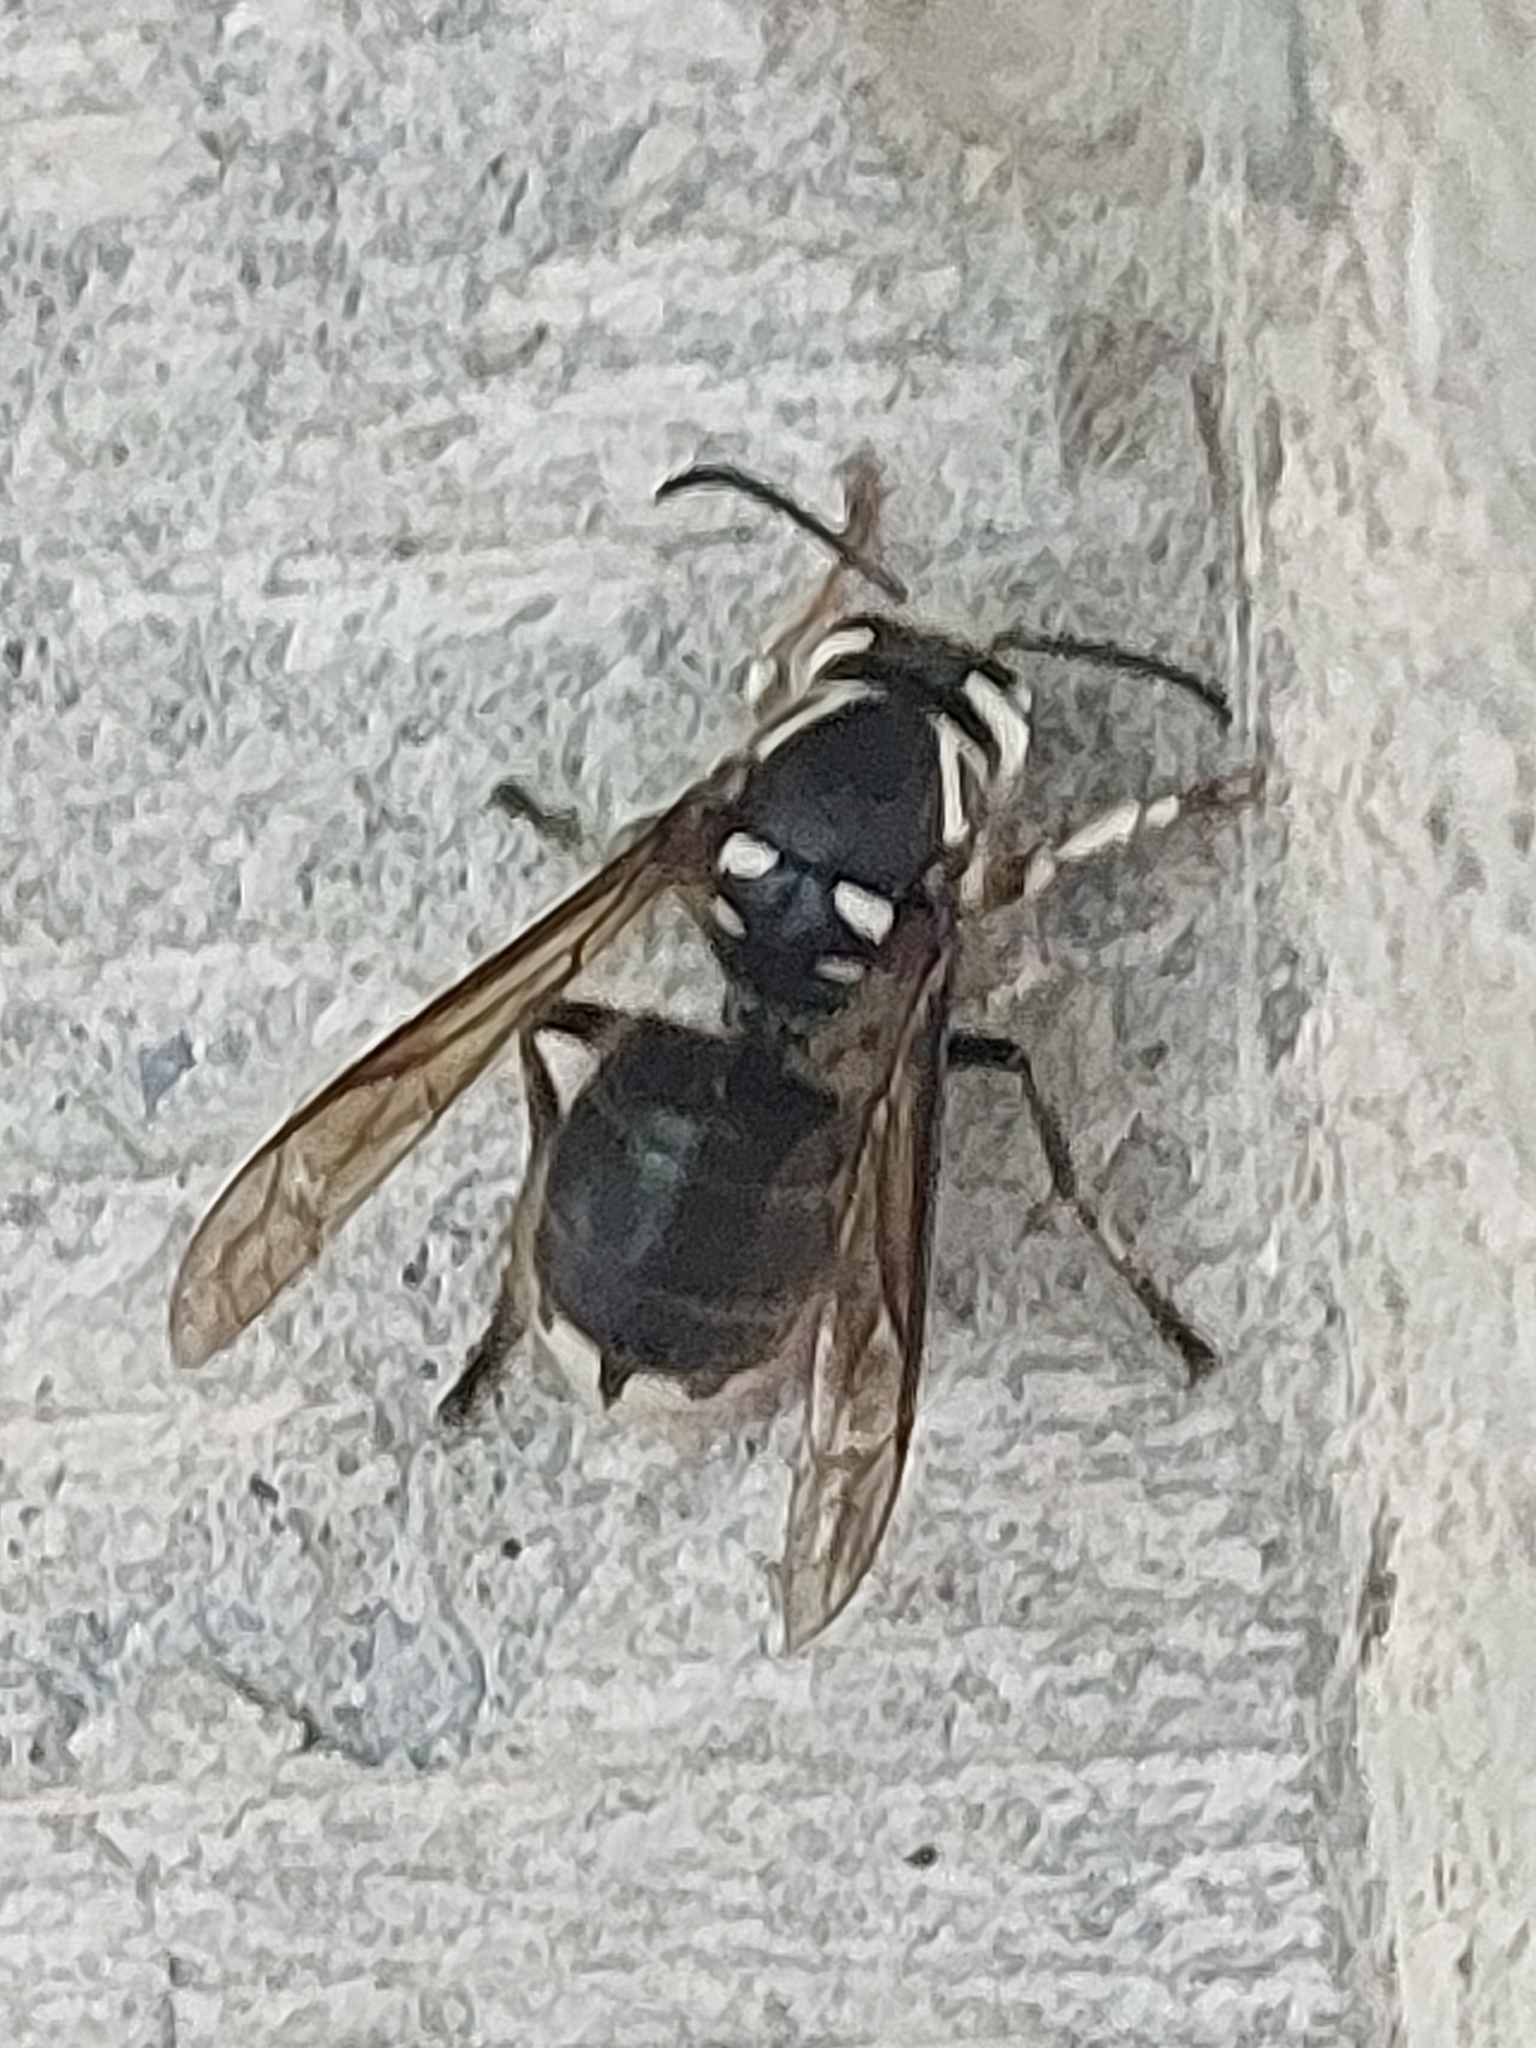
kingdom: Animalia
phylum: Arthropoda
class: Insecta
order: Hymenoptera
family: Vespidae
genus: Dolichovespula
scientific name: Dolichovespula maculata
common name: Bald-faced hornet
